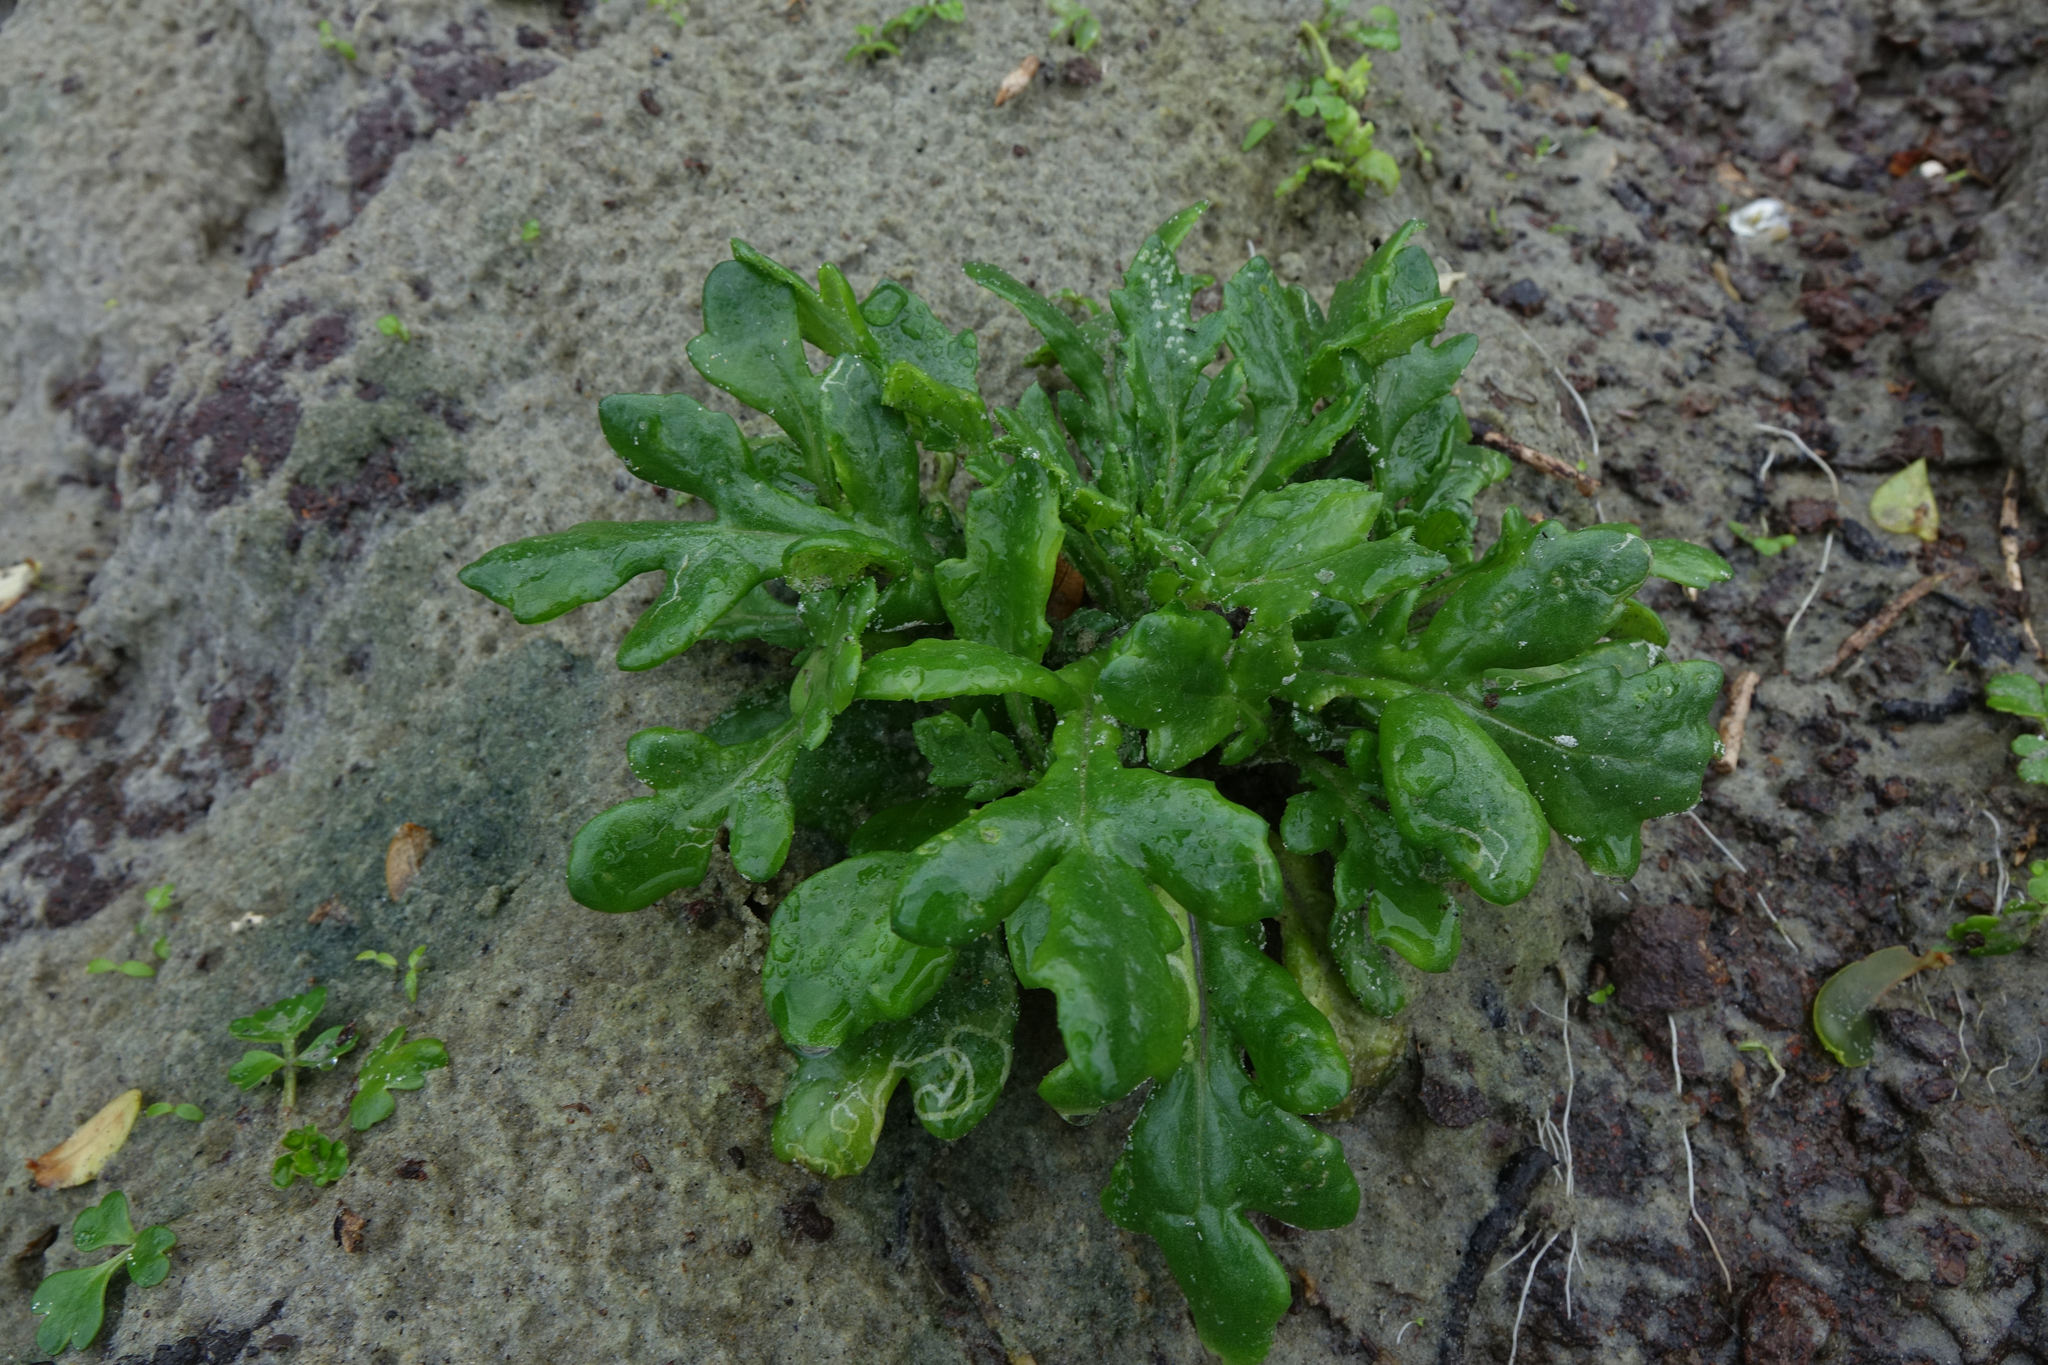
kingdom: Plantae
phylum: Tracheophyta
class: Magnoliopsida
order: Asterales
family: Asteraceae
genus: Senecio
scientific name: Senecio carnosulus
